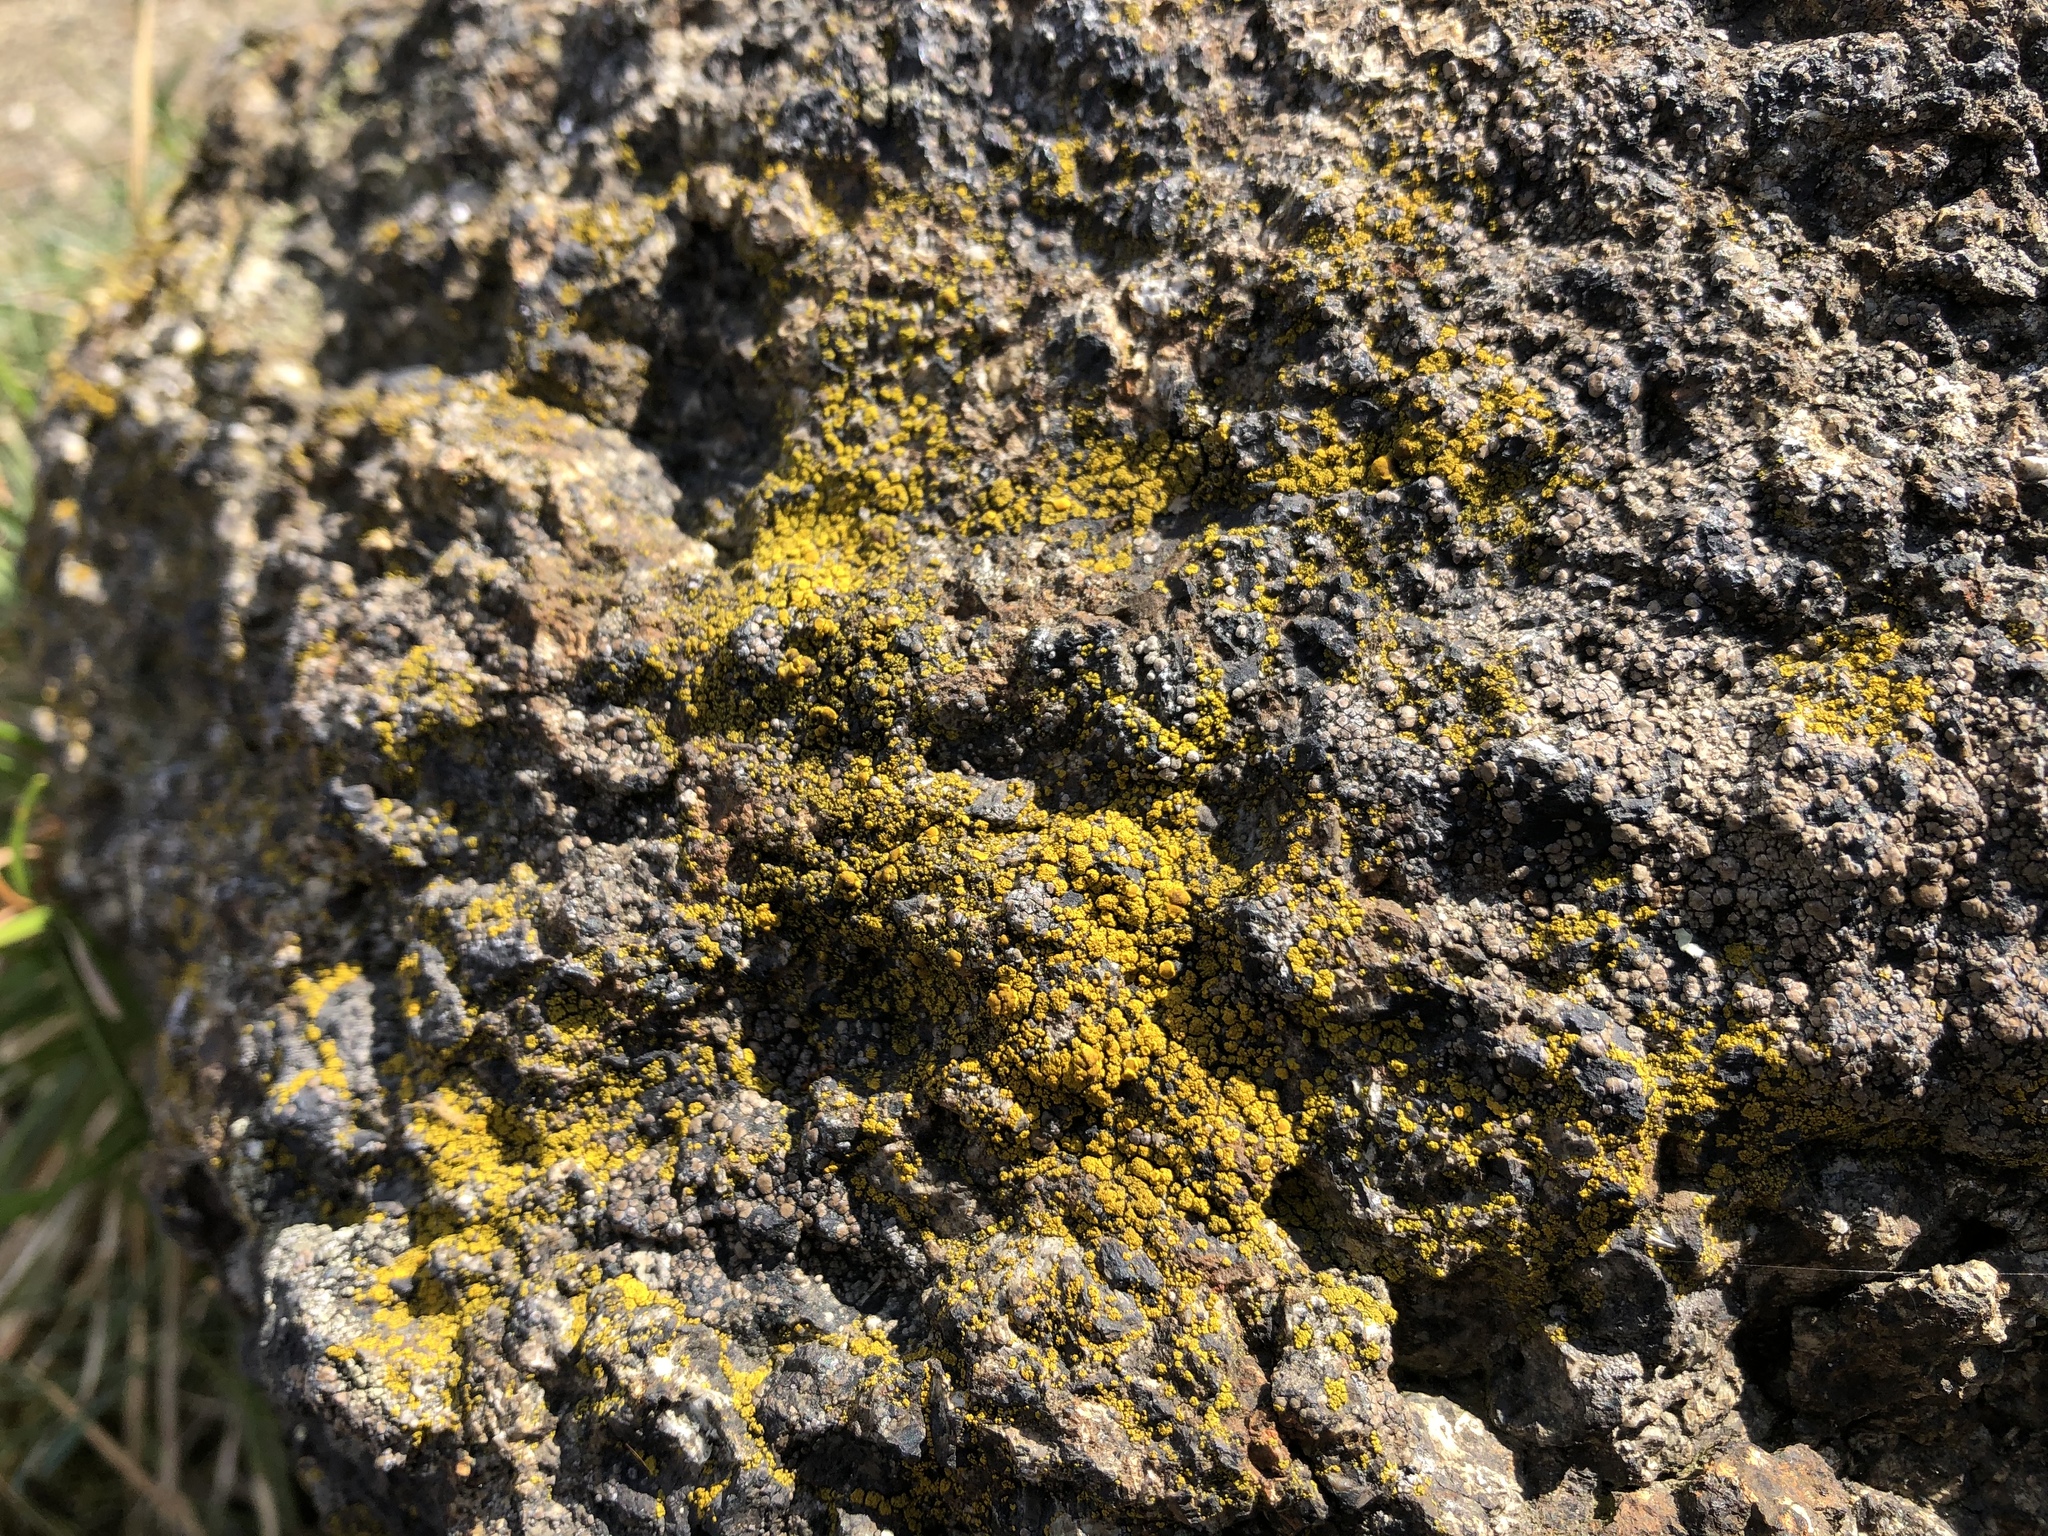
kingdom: Fungi
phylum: Ascomycota
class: Candelariomycetes
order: Candelariales
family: Candelariaceae
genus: Candelariella
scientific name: Candelariella vitellina
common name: Common goldspeck
